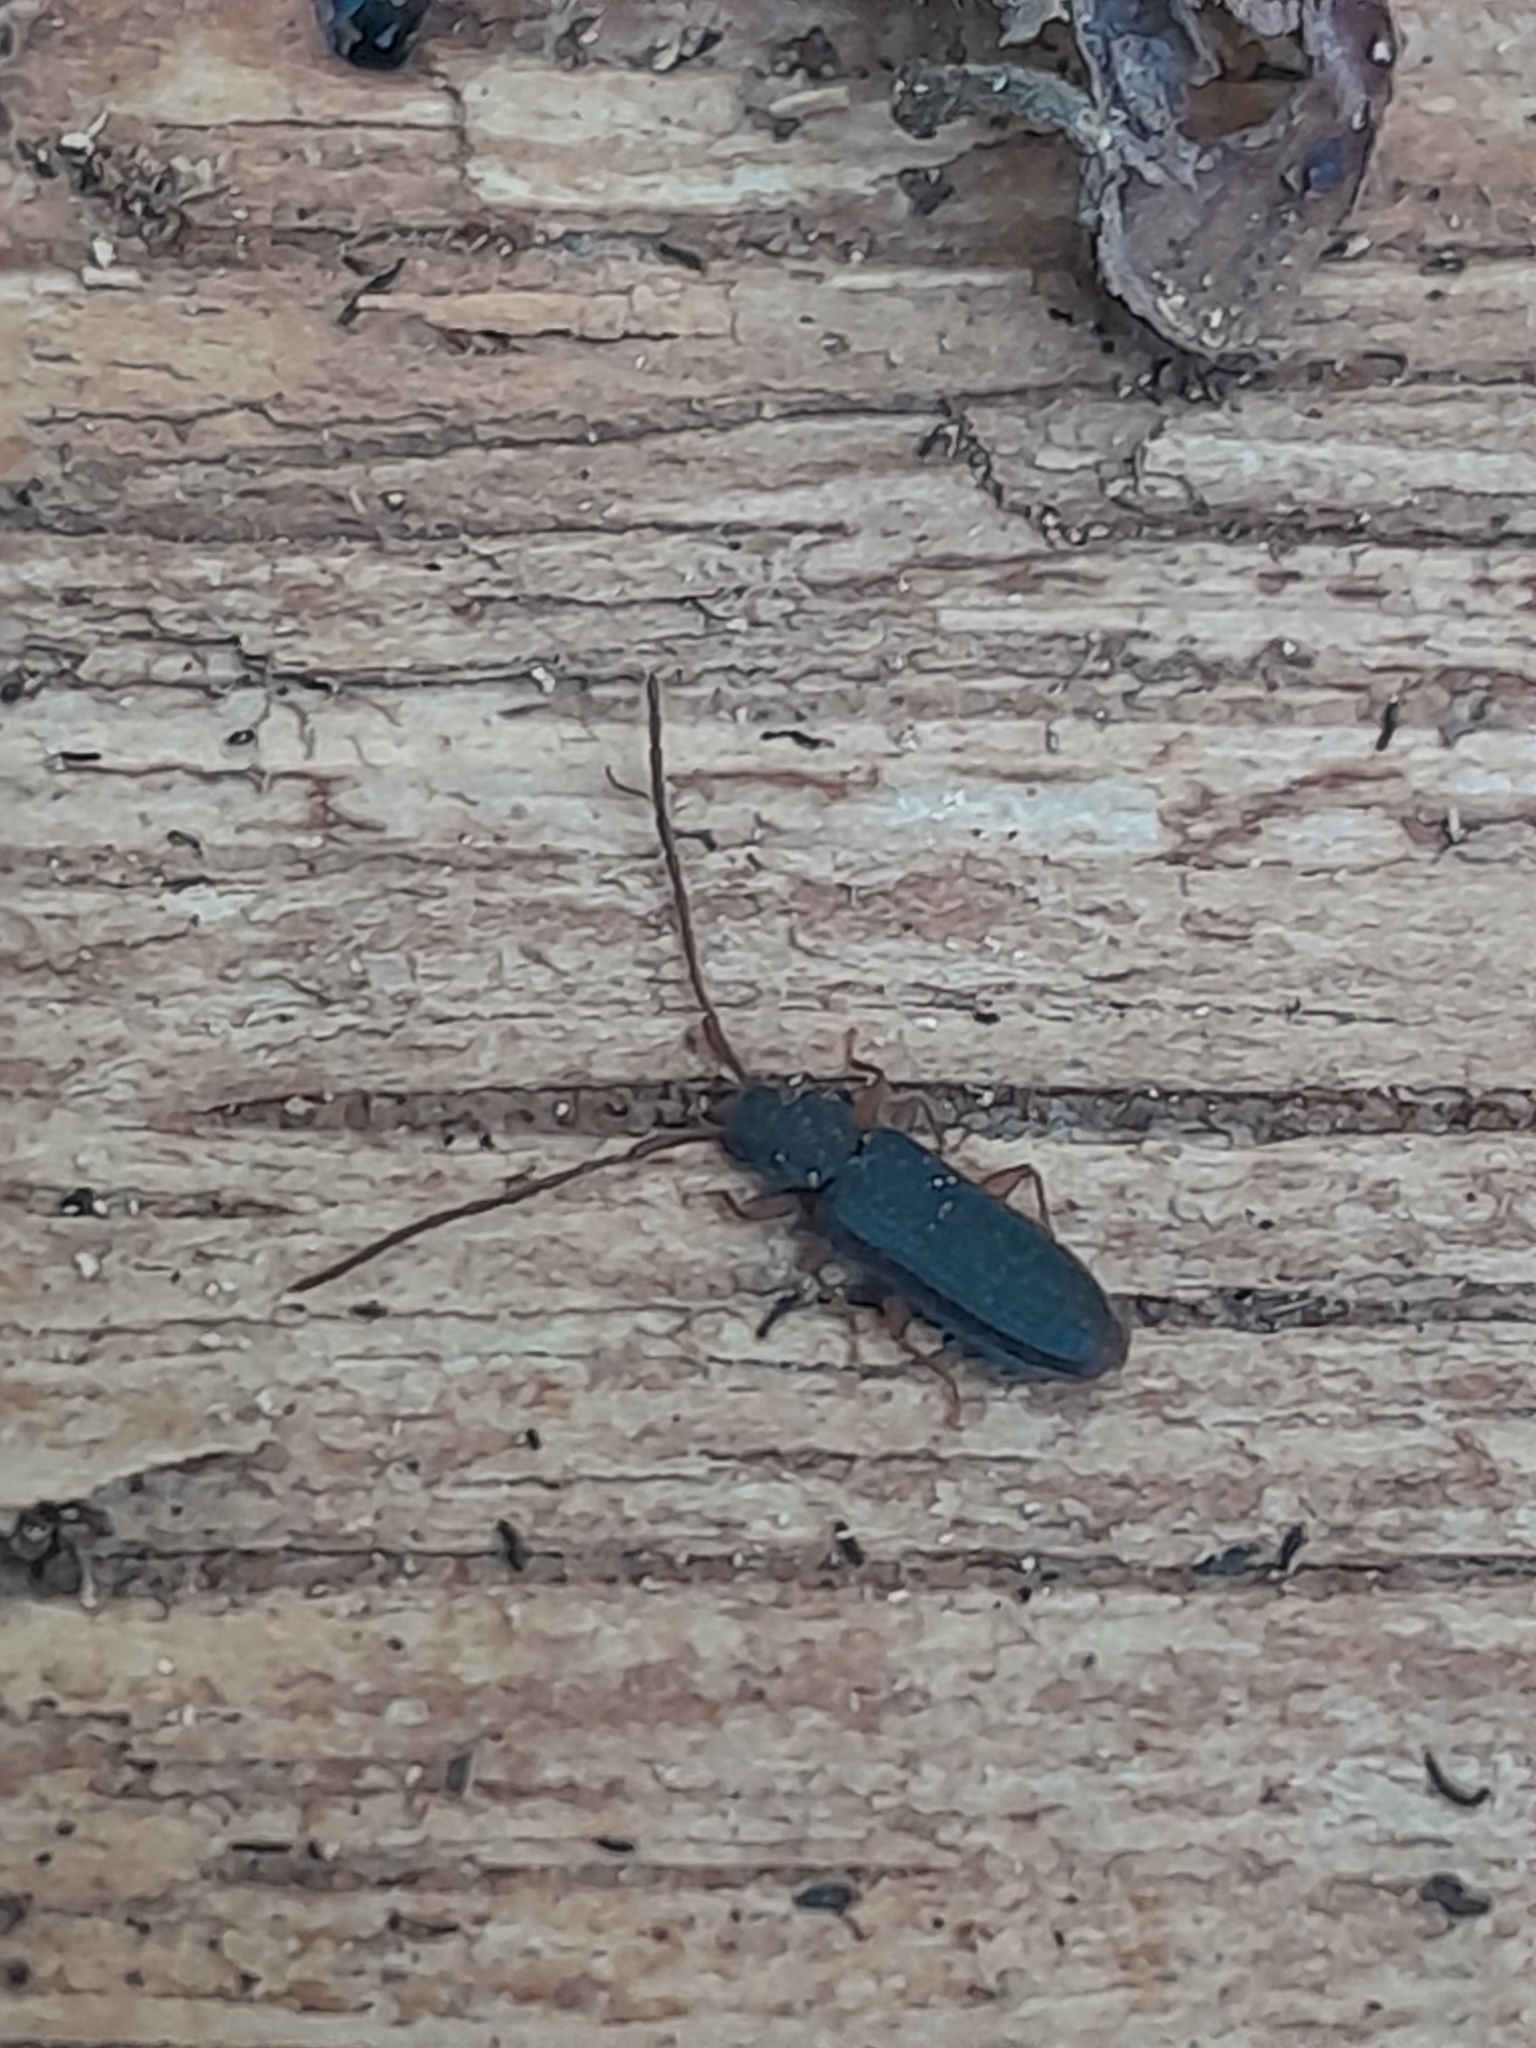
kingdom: Animalia
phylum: Arthropoda
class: Insecta
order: Coleoptera
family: Silvanidae
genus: Uleiota
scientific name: Uleiota planatus
